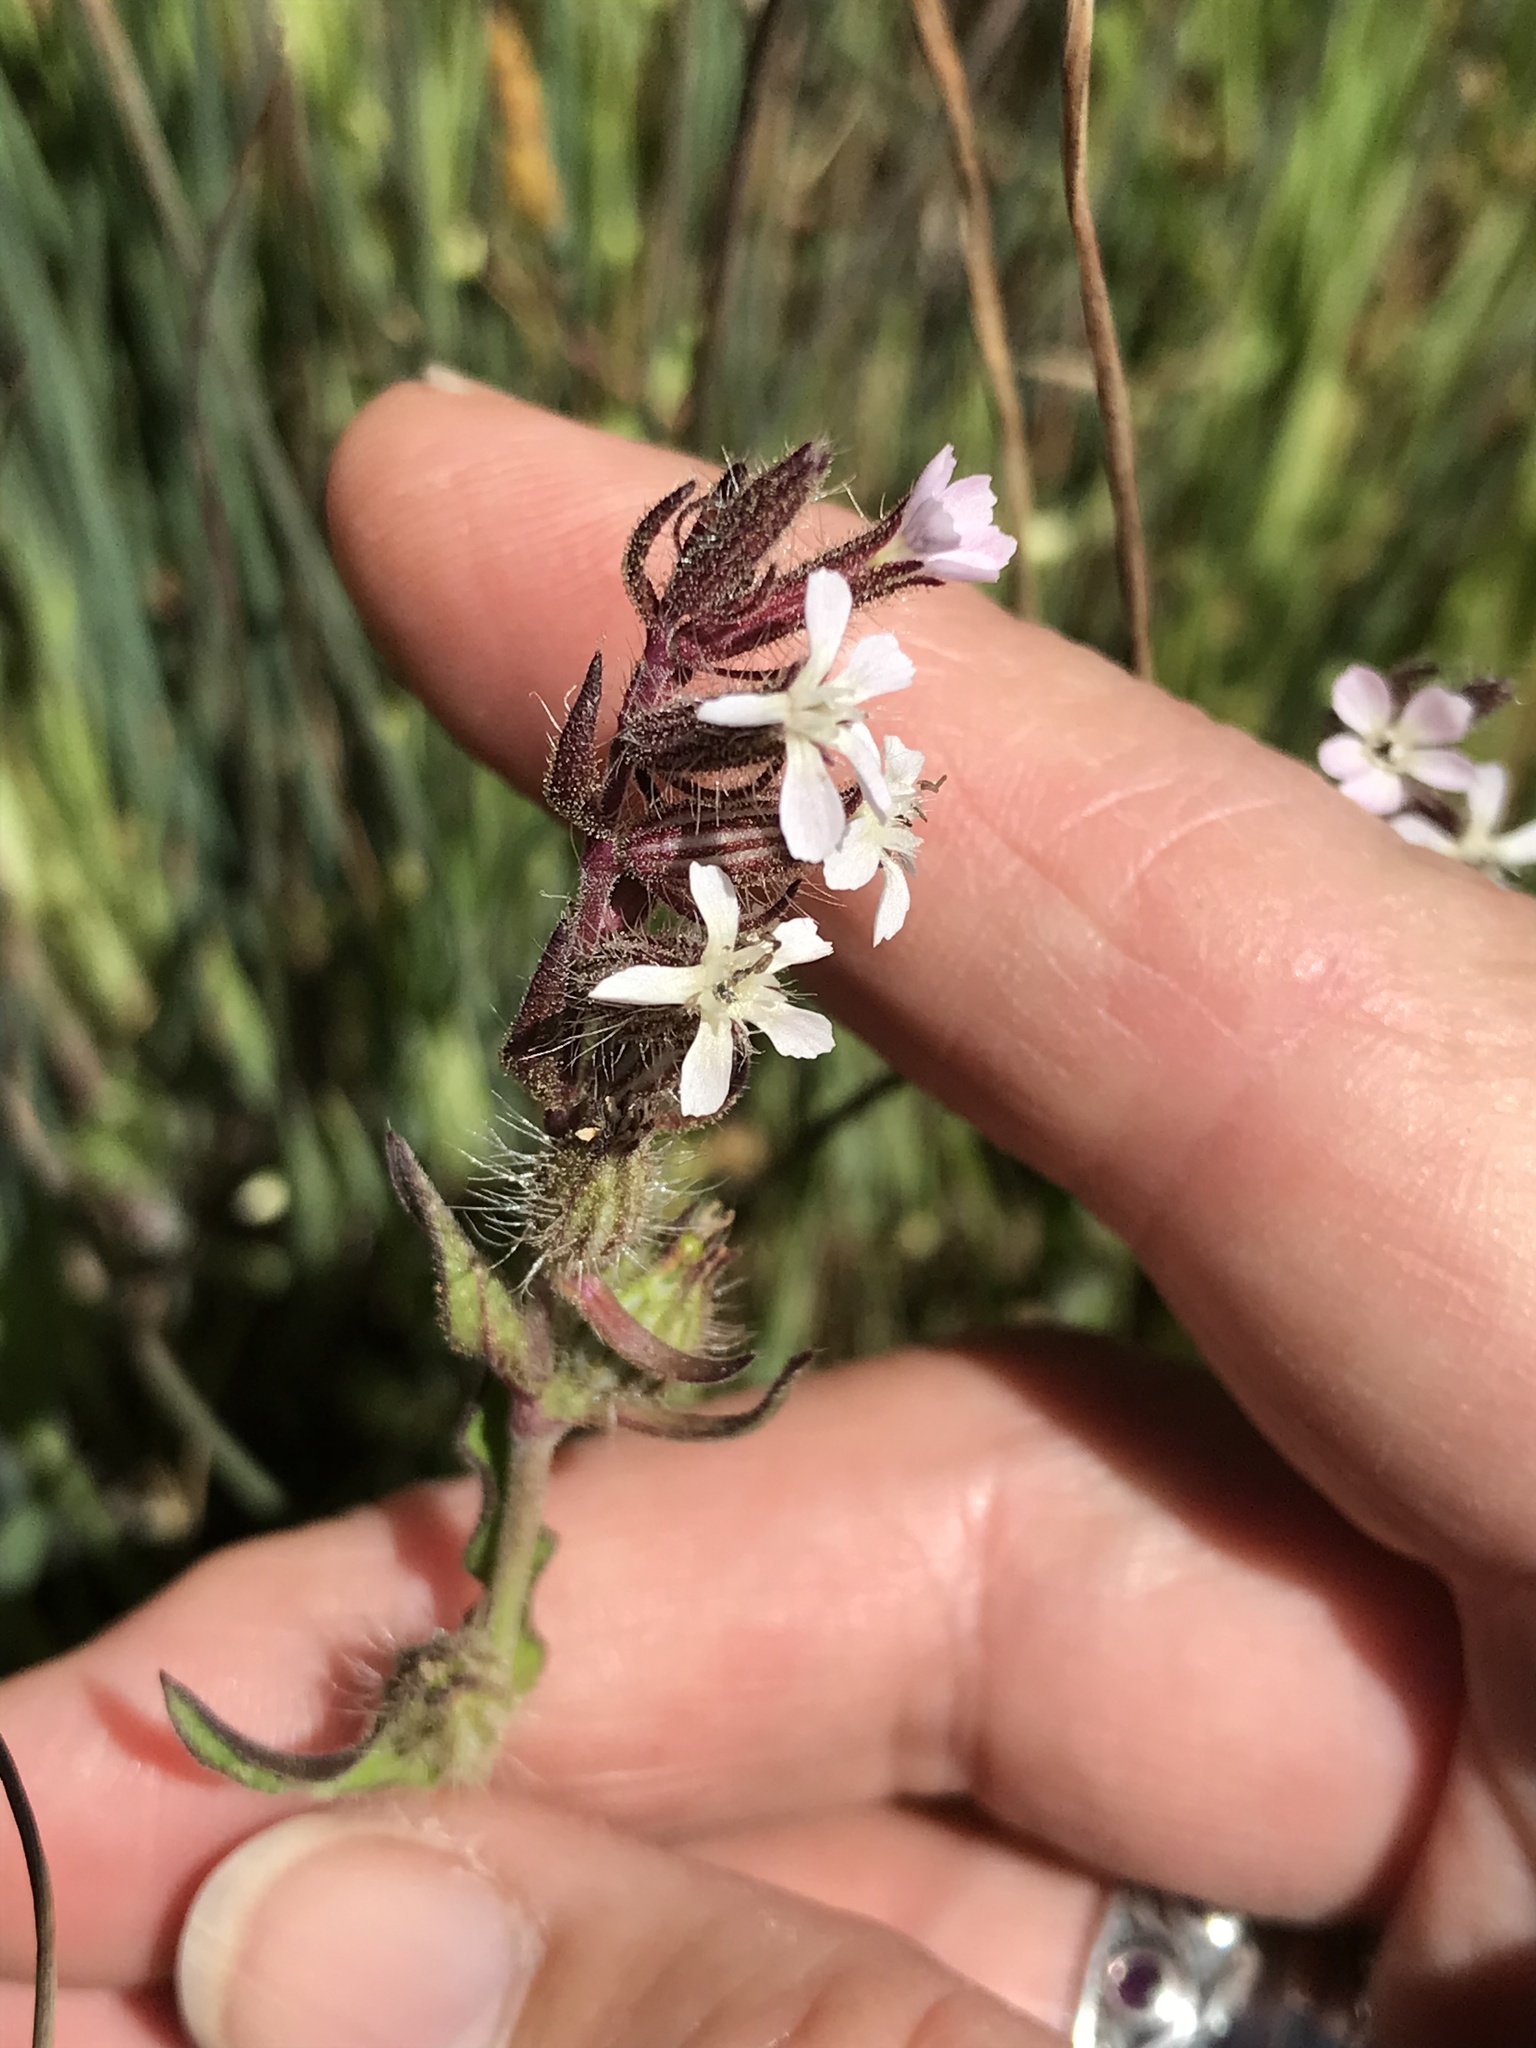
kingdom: Plantae
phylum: Tracheophyta
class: Magnoliopsida
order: Caryophyllales
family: Caryophyllaceae
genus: Silene
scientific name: Silene gallica
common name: Small-flowered catchfly
